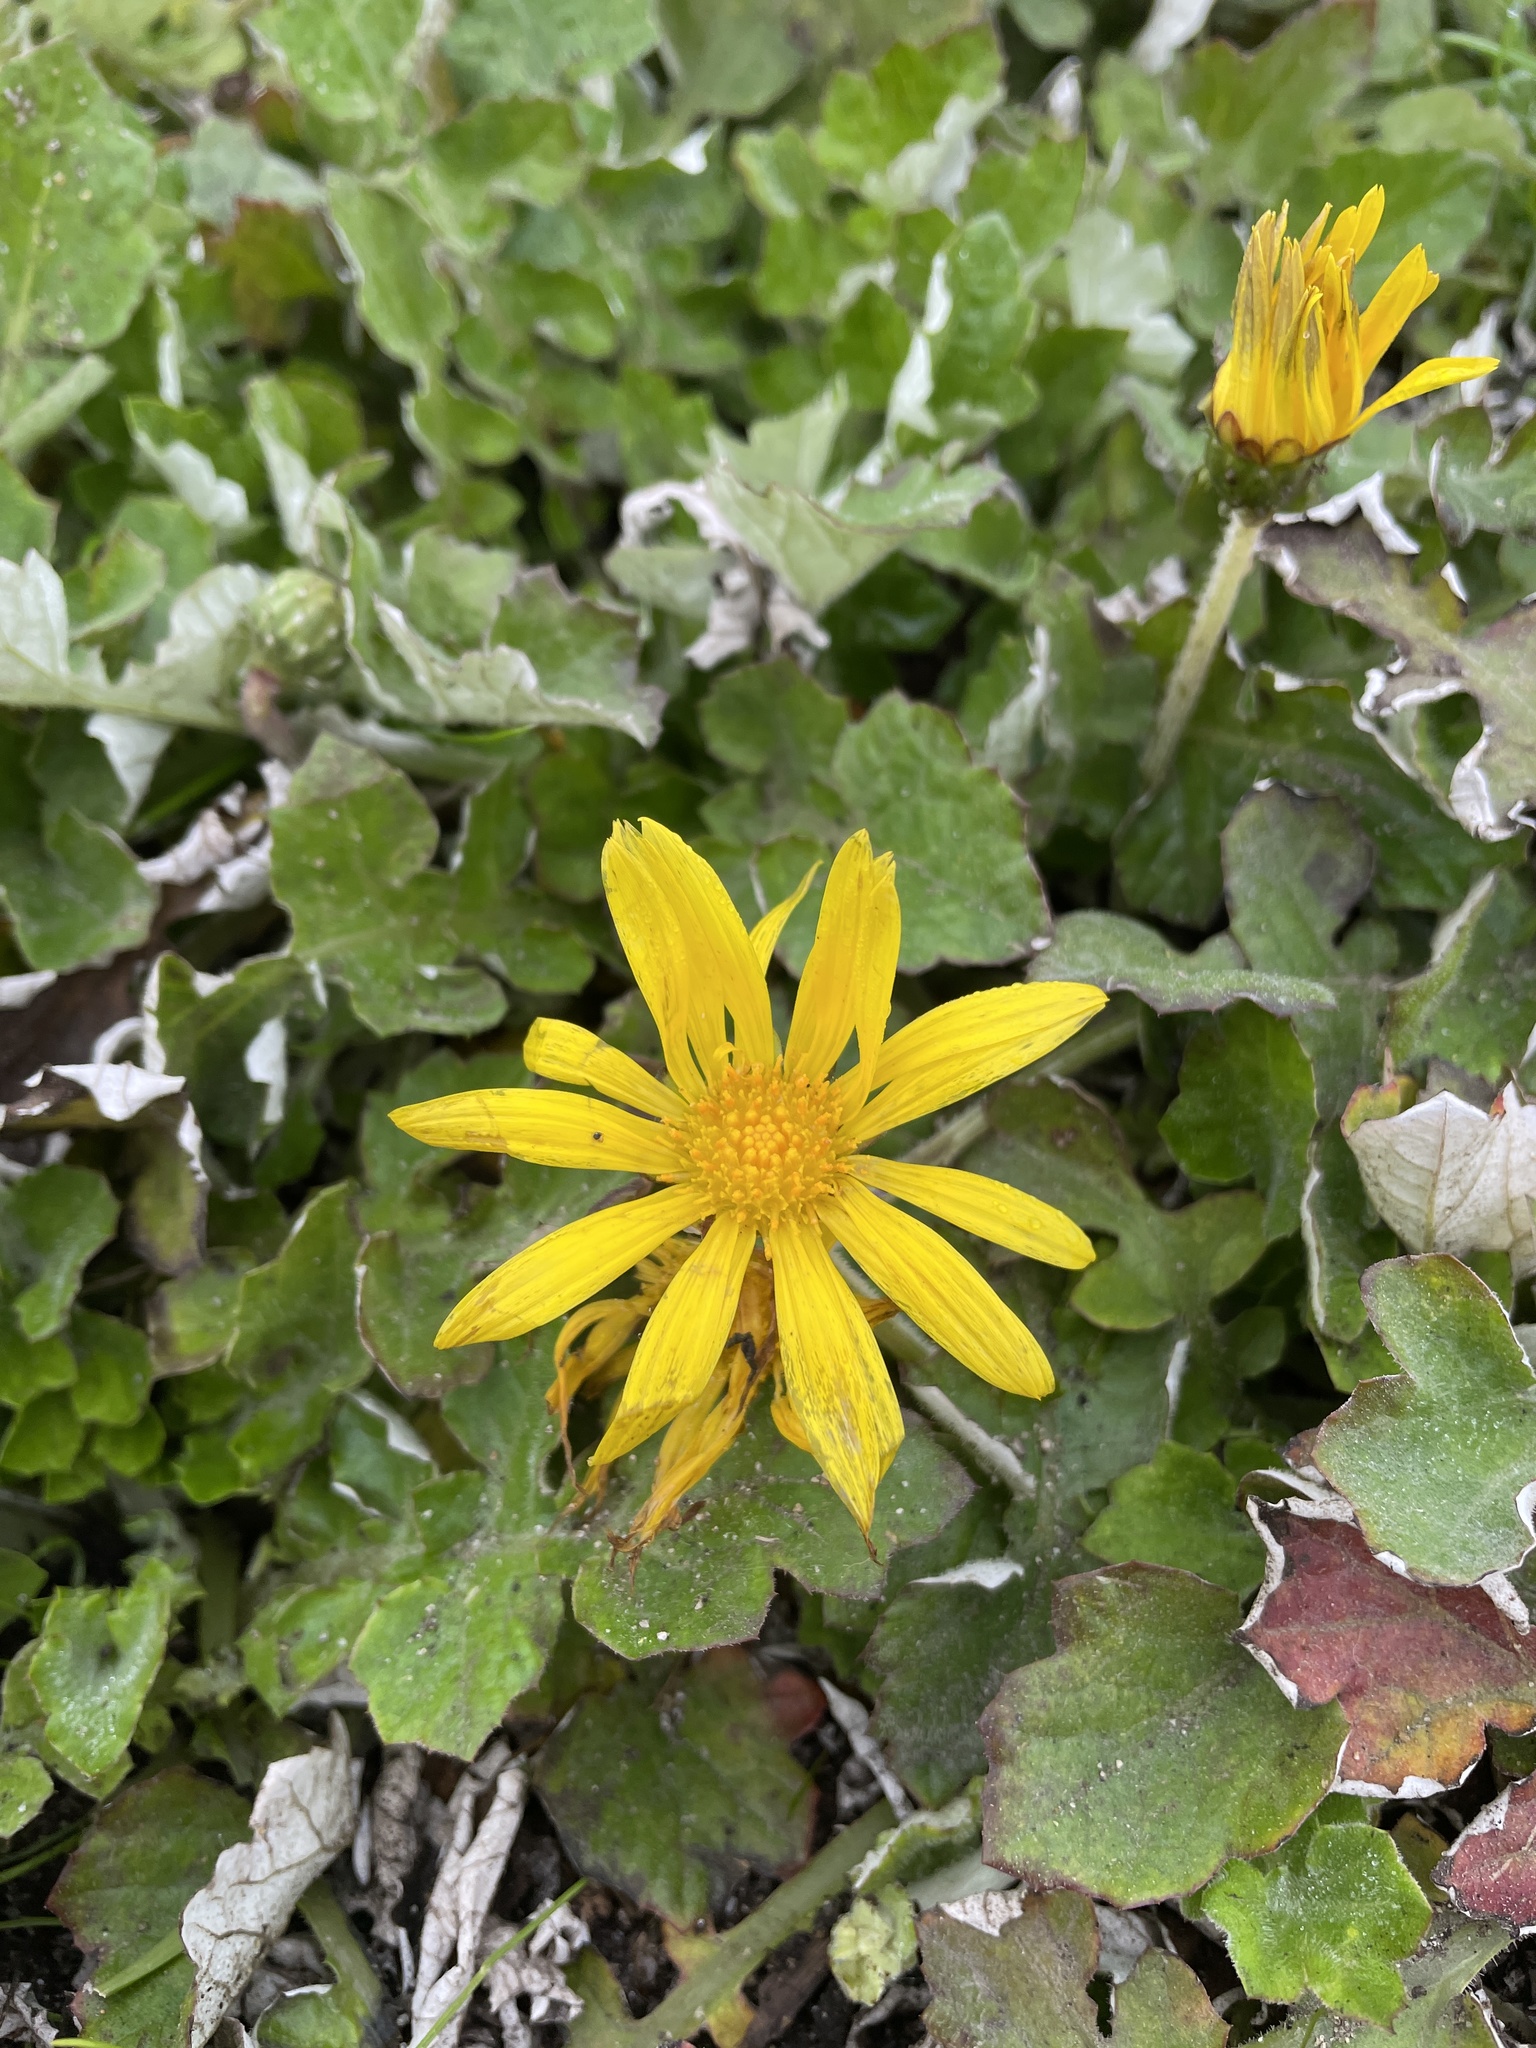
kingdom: Plantae
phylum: Tracheophyta
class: Magnoliopsida
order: Asterales
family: Asteraceae
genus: Arctotheca
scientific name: Arctotheca prostrata
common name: Capeweed
